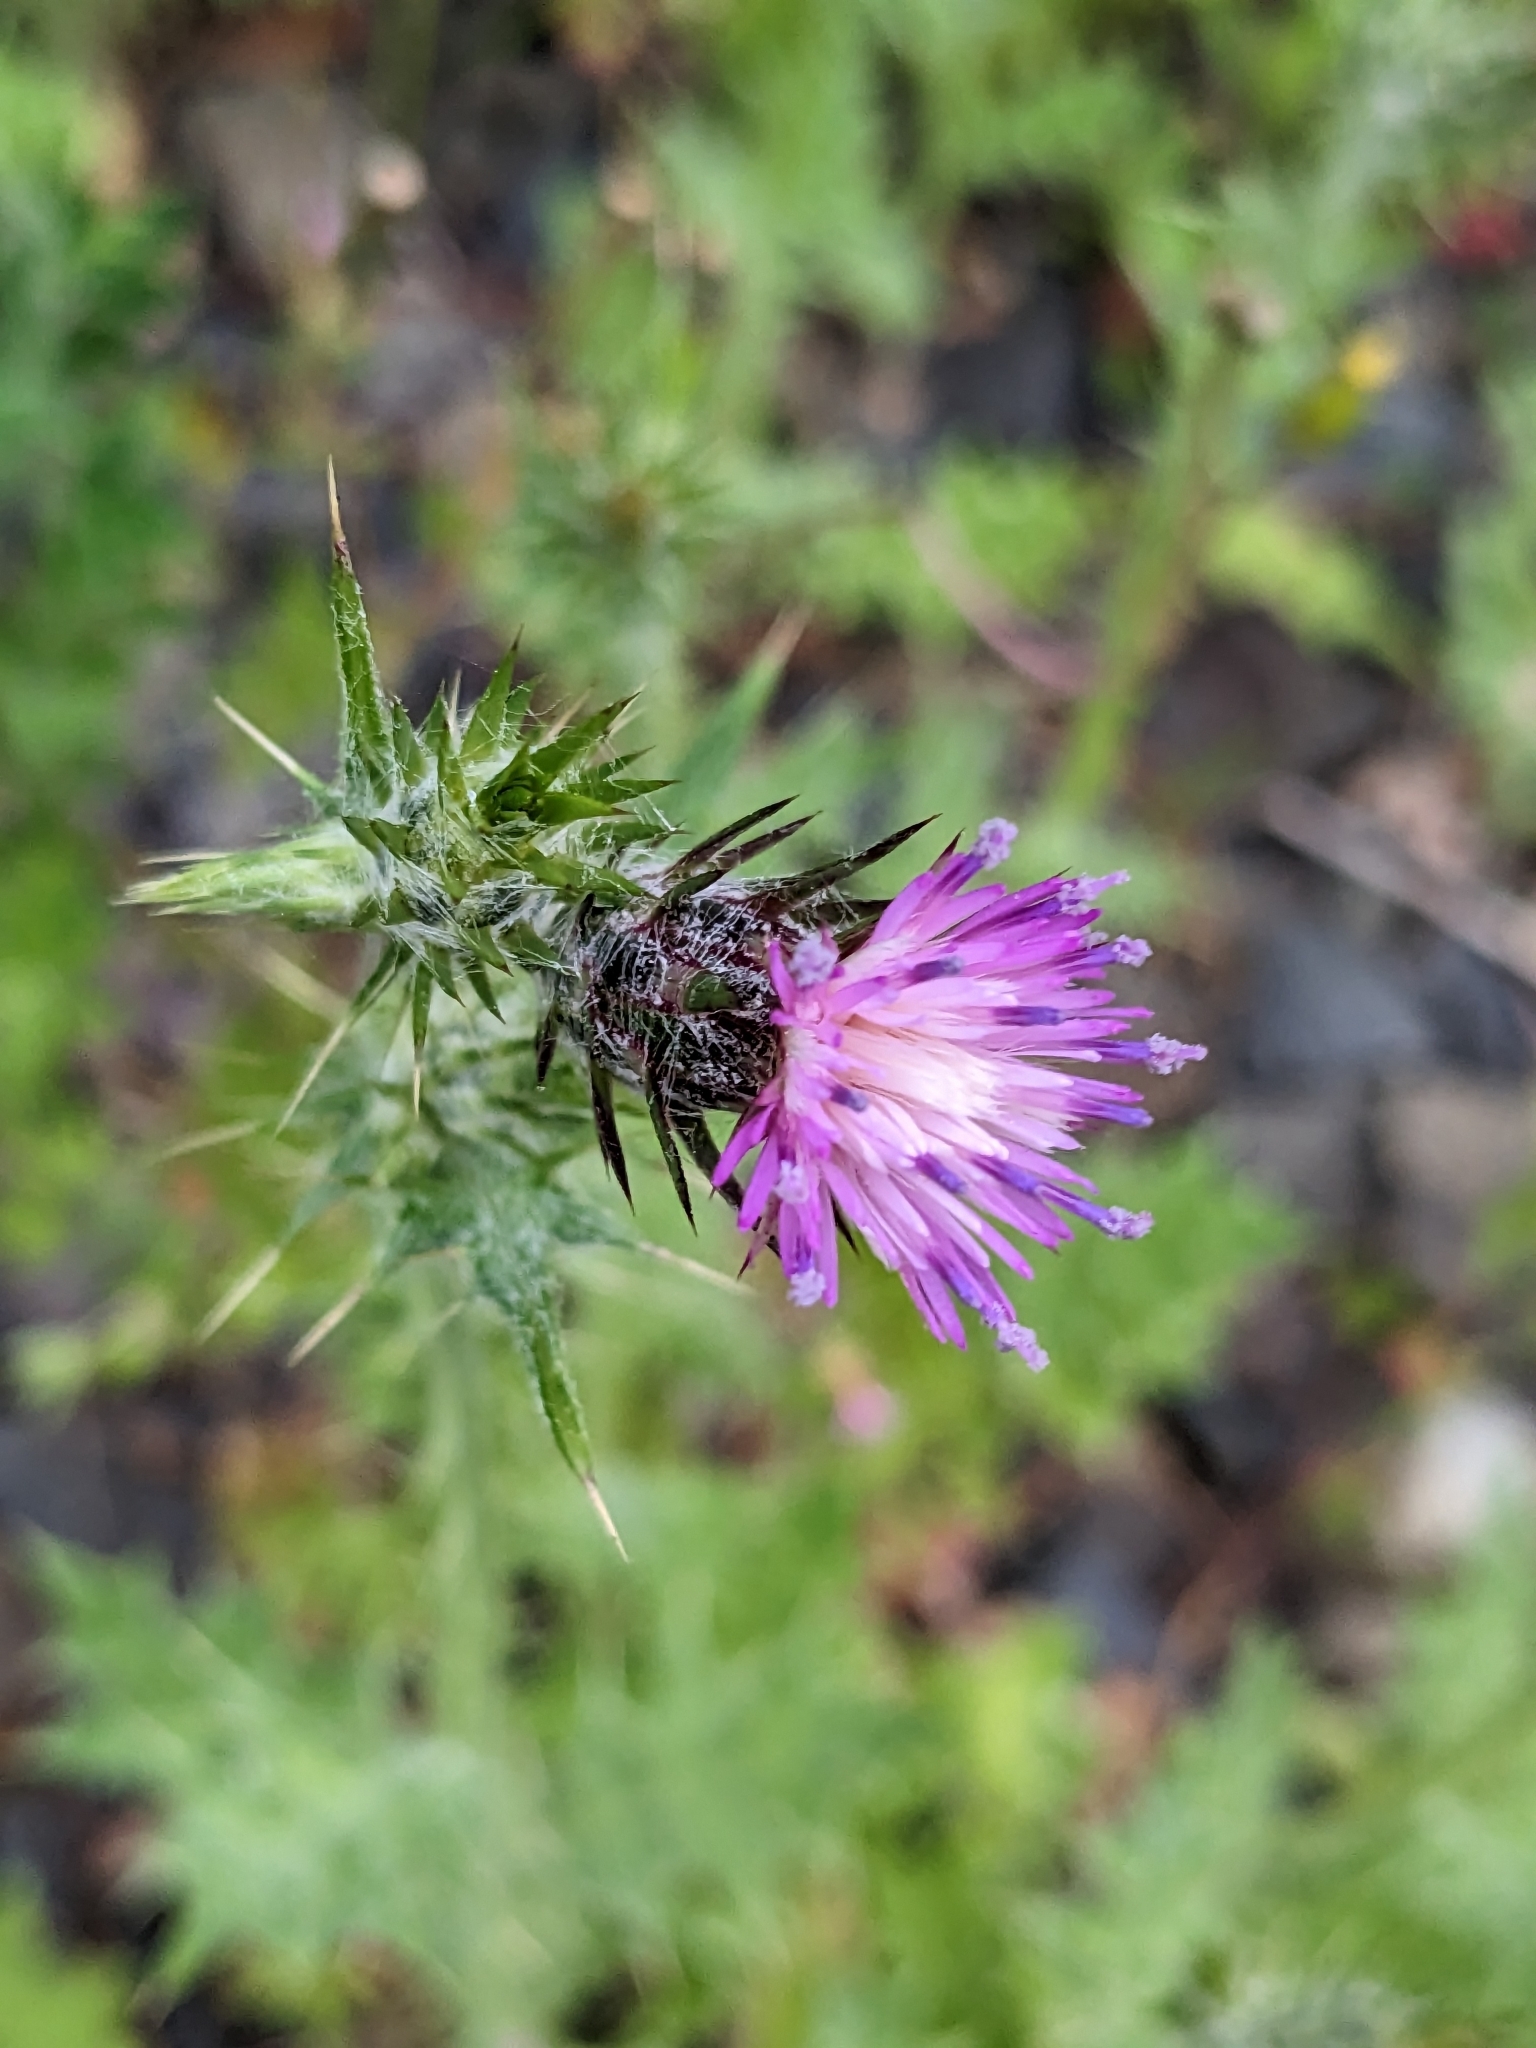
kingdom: Plantae
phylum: Tracheophyta
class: Magnoliopsida
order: Asterales
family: Asteraceae
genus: Carduus
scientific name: Carduus pycnocephalus
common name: Plymouth thistle
